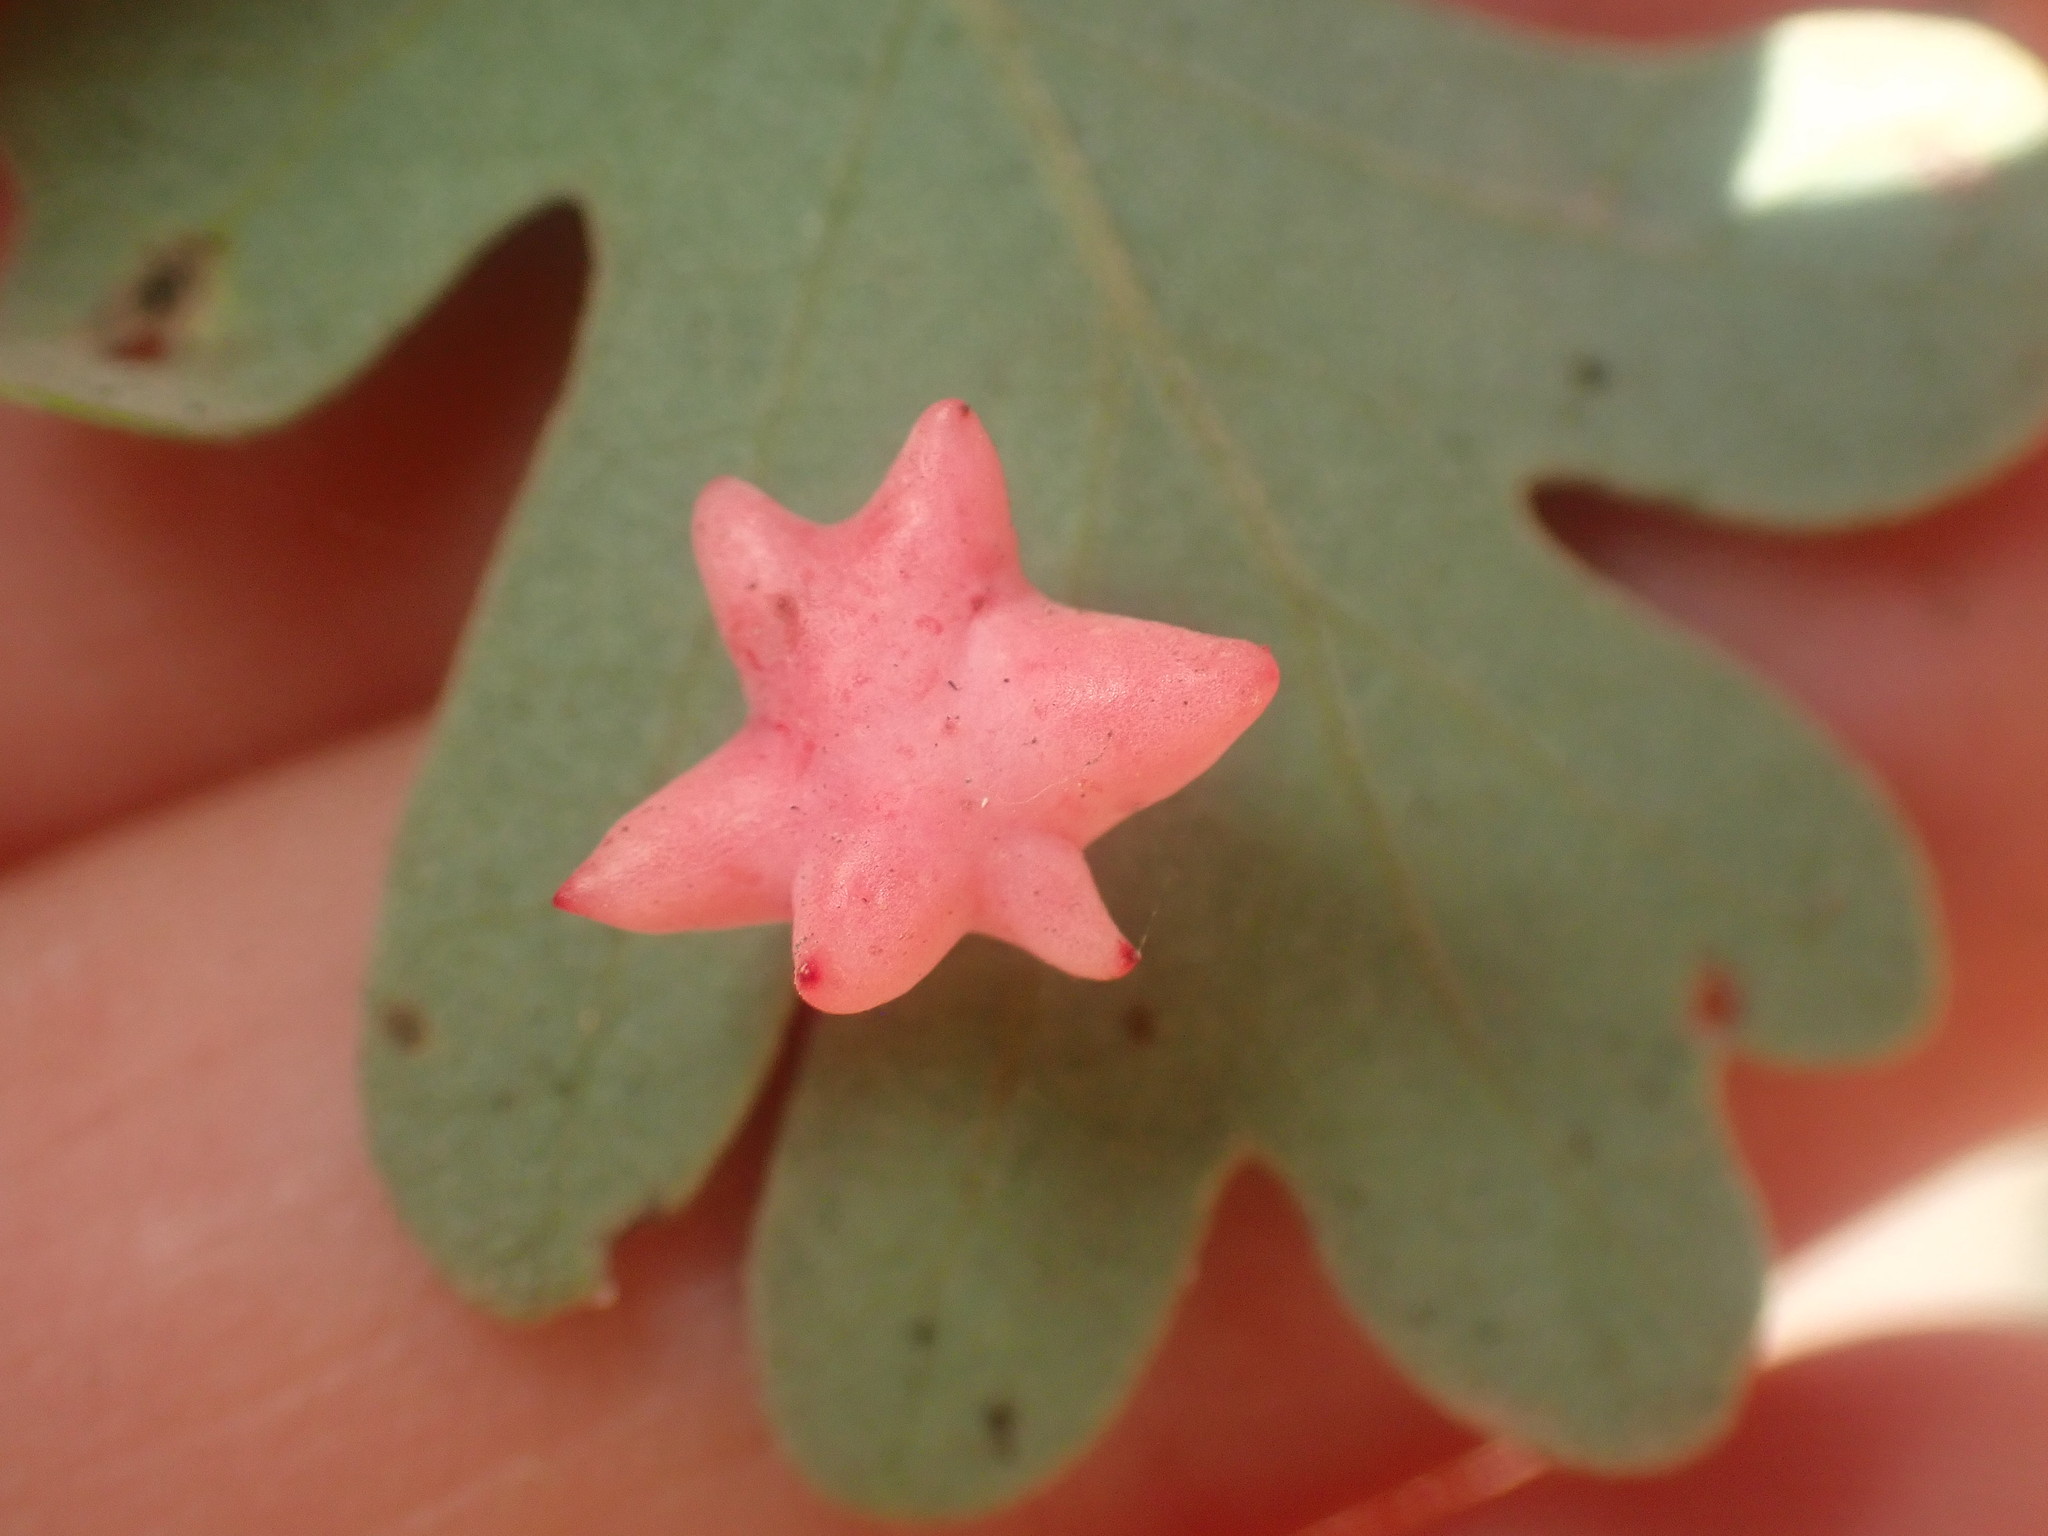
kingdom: Animalia
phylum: Arthropoda
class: Insecta
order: Hymenoptera
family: Cynipidae
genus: Cynips
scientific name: Cynips douglasi
